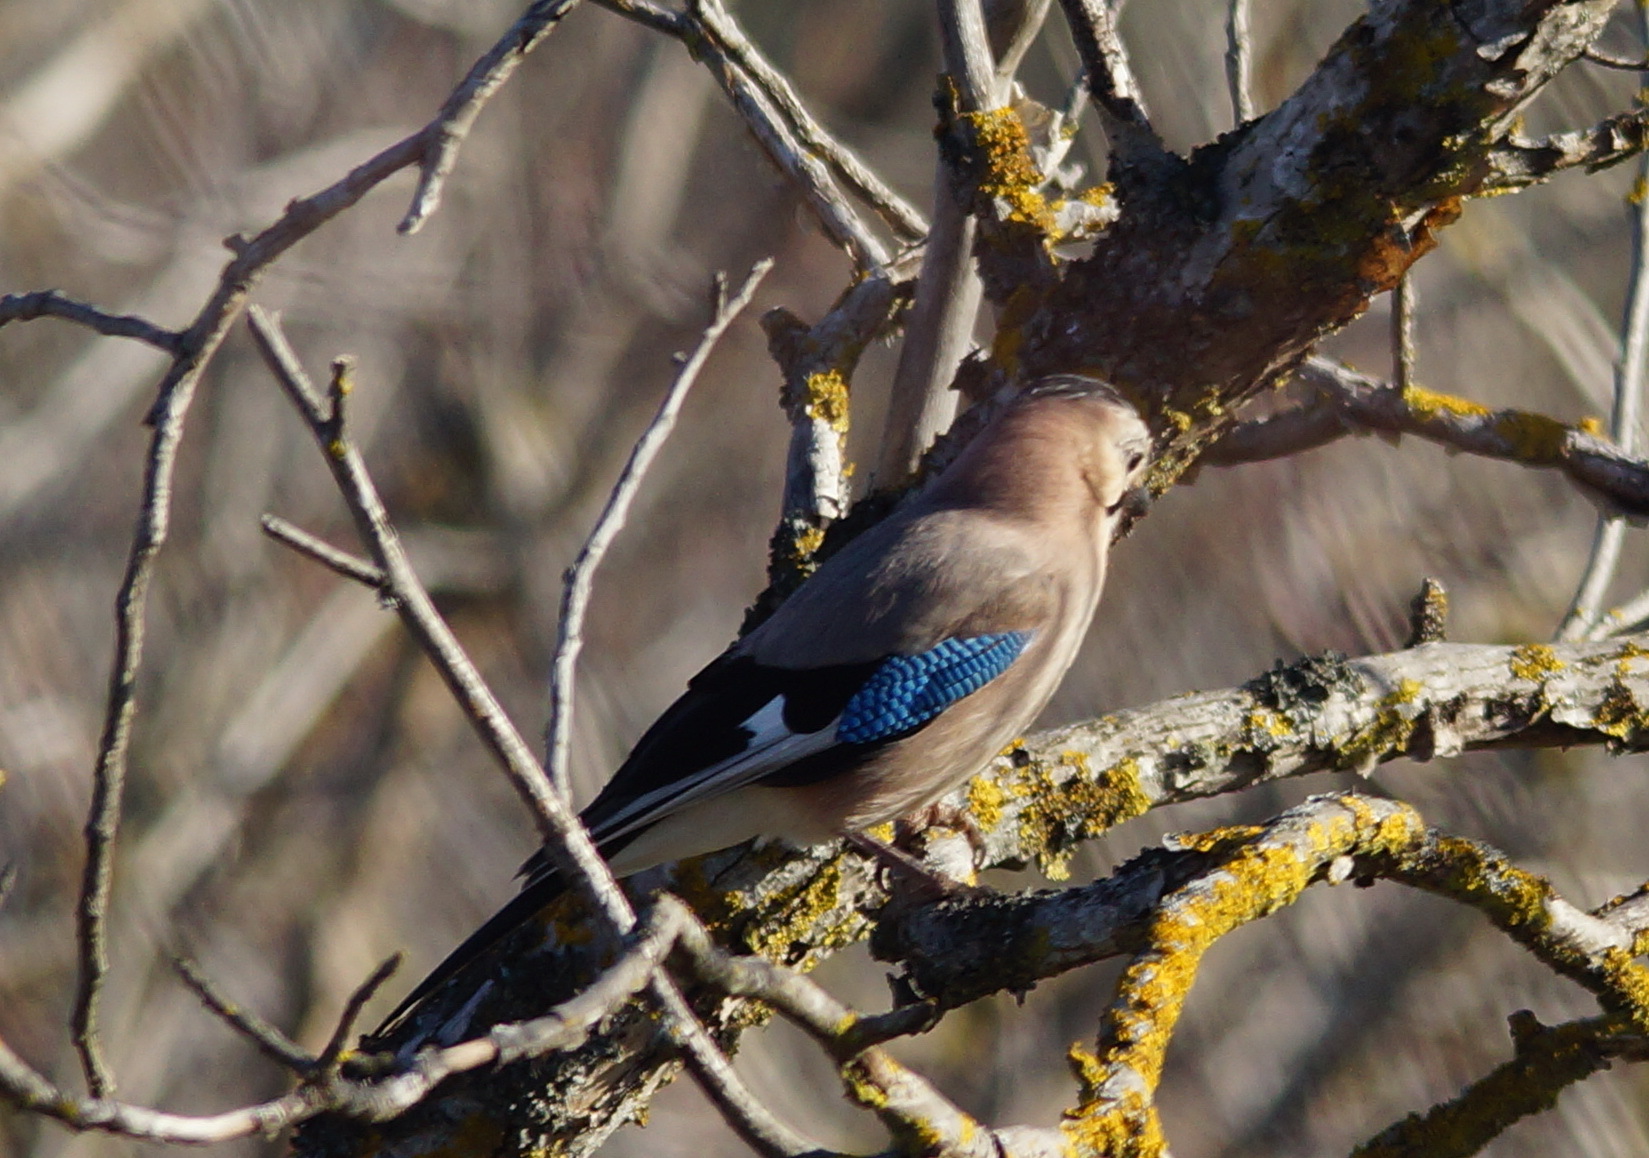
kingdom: Animalia
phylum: Chordata
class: Aves
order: Passeriformes
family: Corvidae
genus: Garrulus
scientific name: Garrulus glandarius
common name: Eurasian jay
